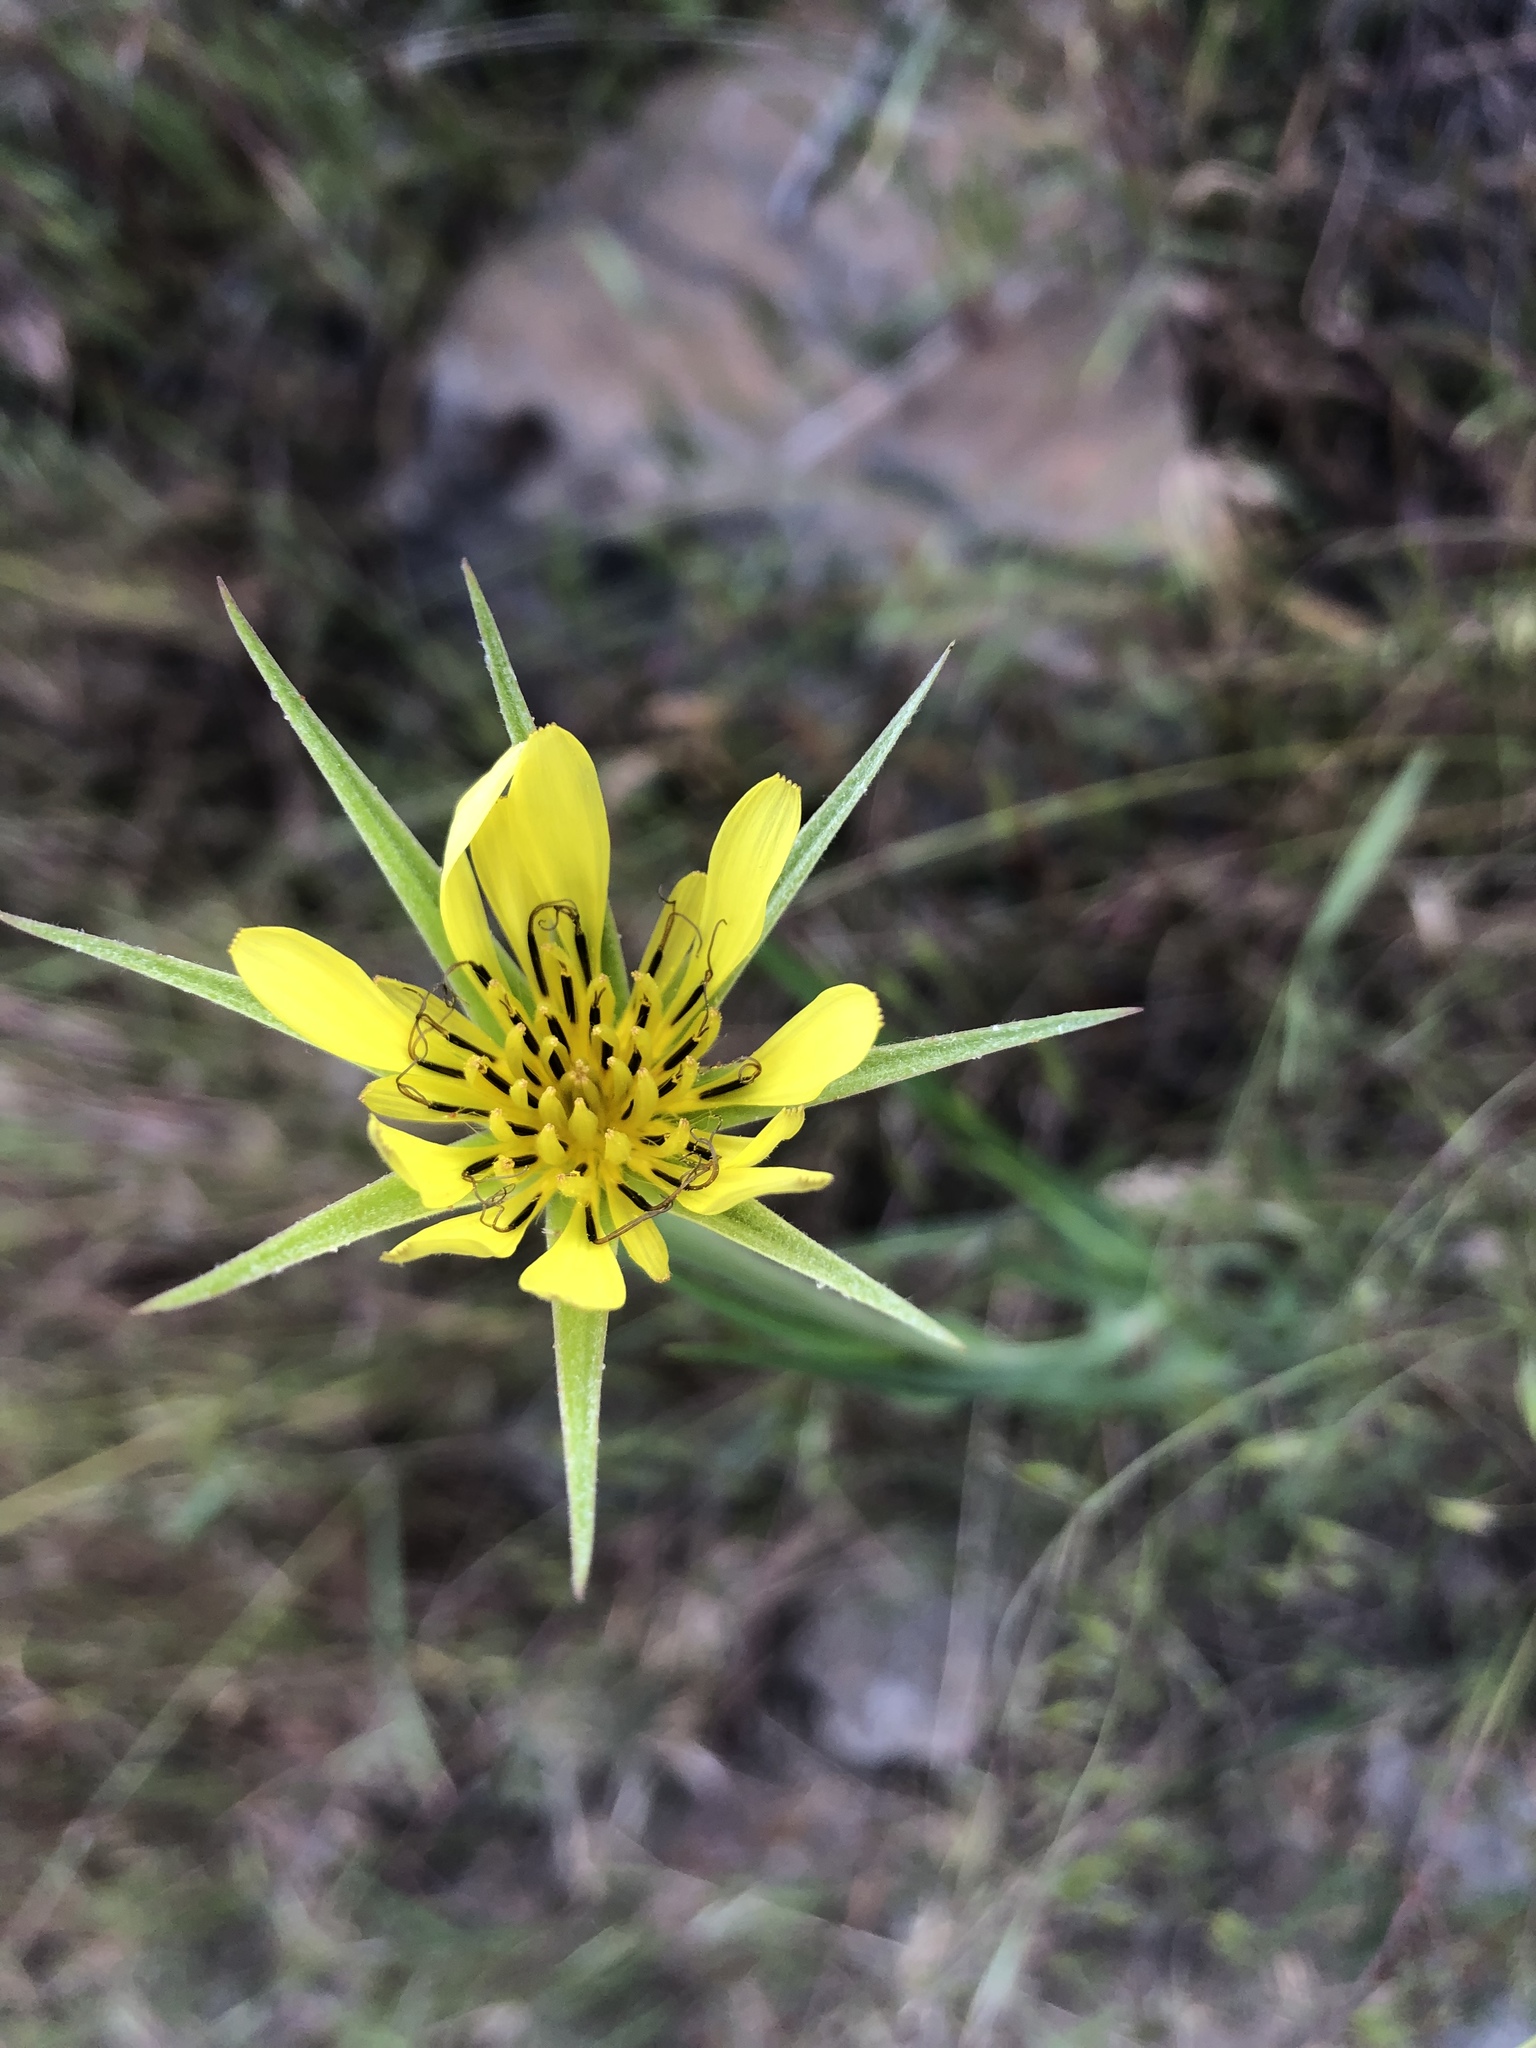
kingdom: Plantae
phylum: Tracheophyta
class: Magnoliopsida
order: Asterales
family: Asteraceae
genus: Tragopogon
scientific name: Tragopogon dubius
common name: Yellow salsify
